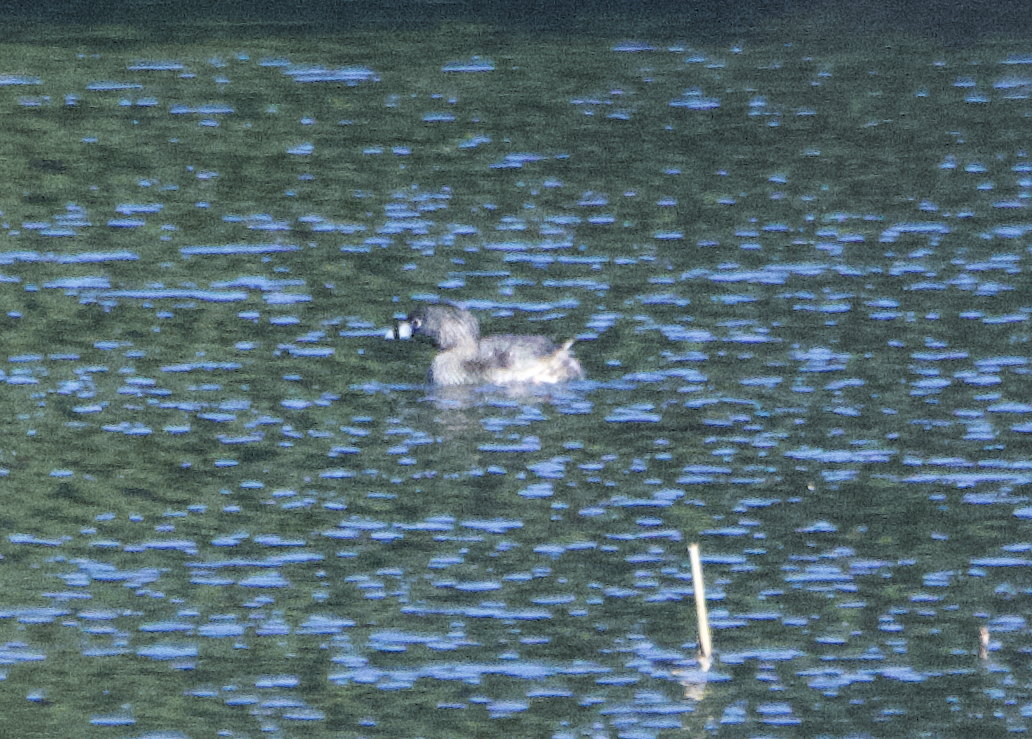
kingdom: Animalia
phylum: Chordata
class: Aves
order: Podicipediformes
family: Podicipedidae
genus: Podilymbus
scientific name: Podilymbus podiceps
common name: Pied-billed grebe
